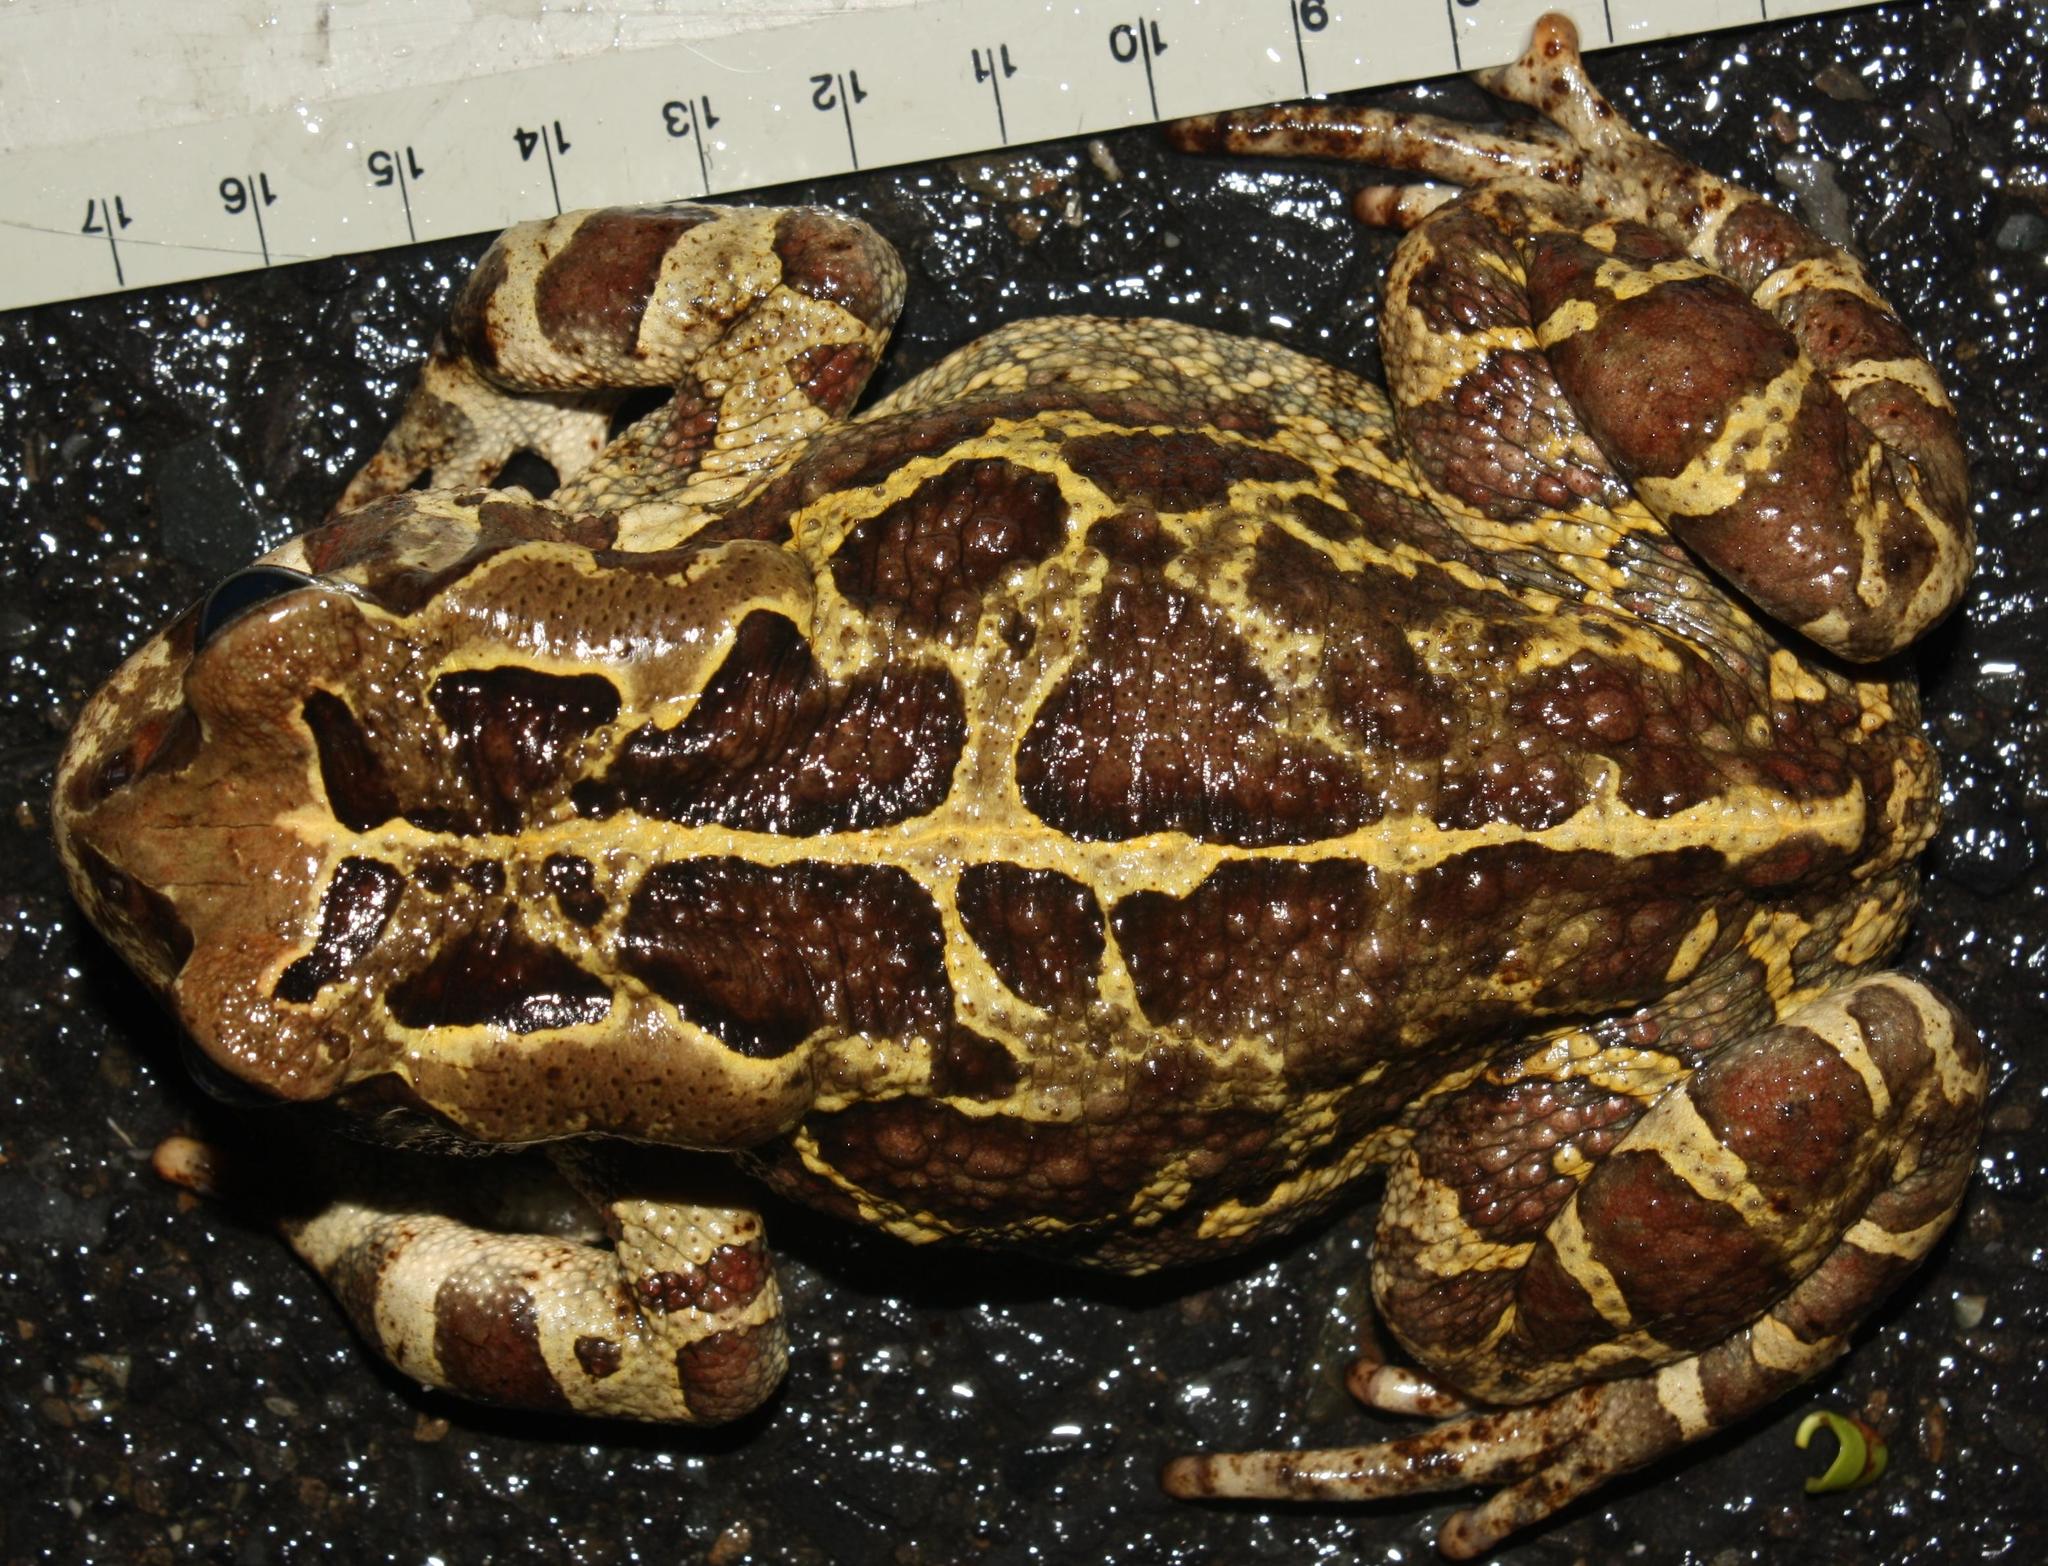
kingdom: Animalia
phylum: Chordata
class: Amphibia
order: Anura
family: Bufonidae
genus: Sclerophrys
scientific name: Sclerophrys pantherina
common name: Panther toad
